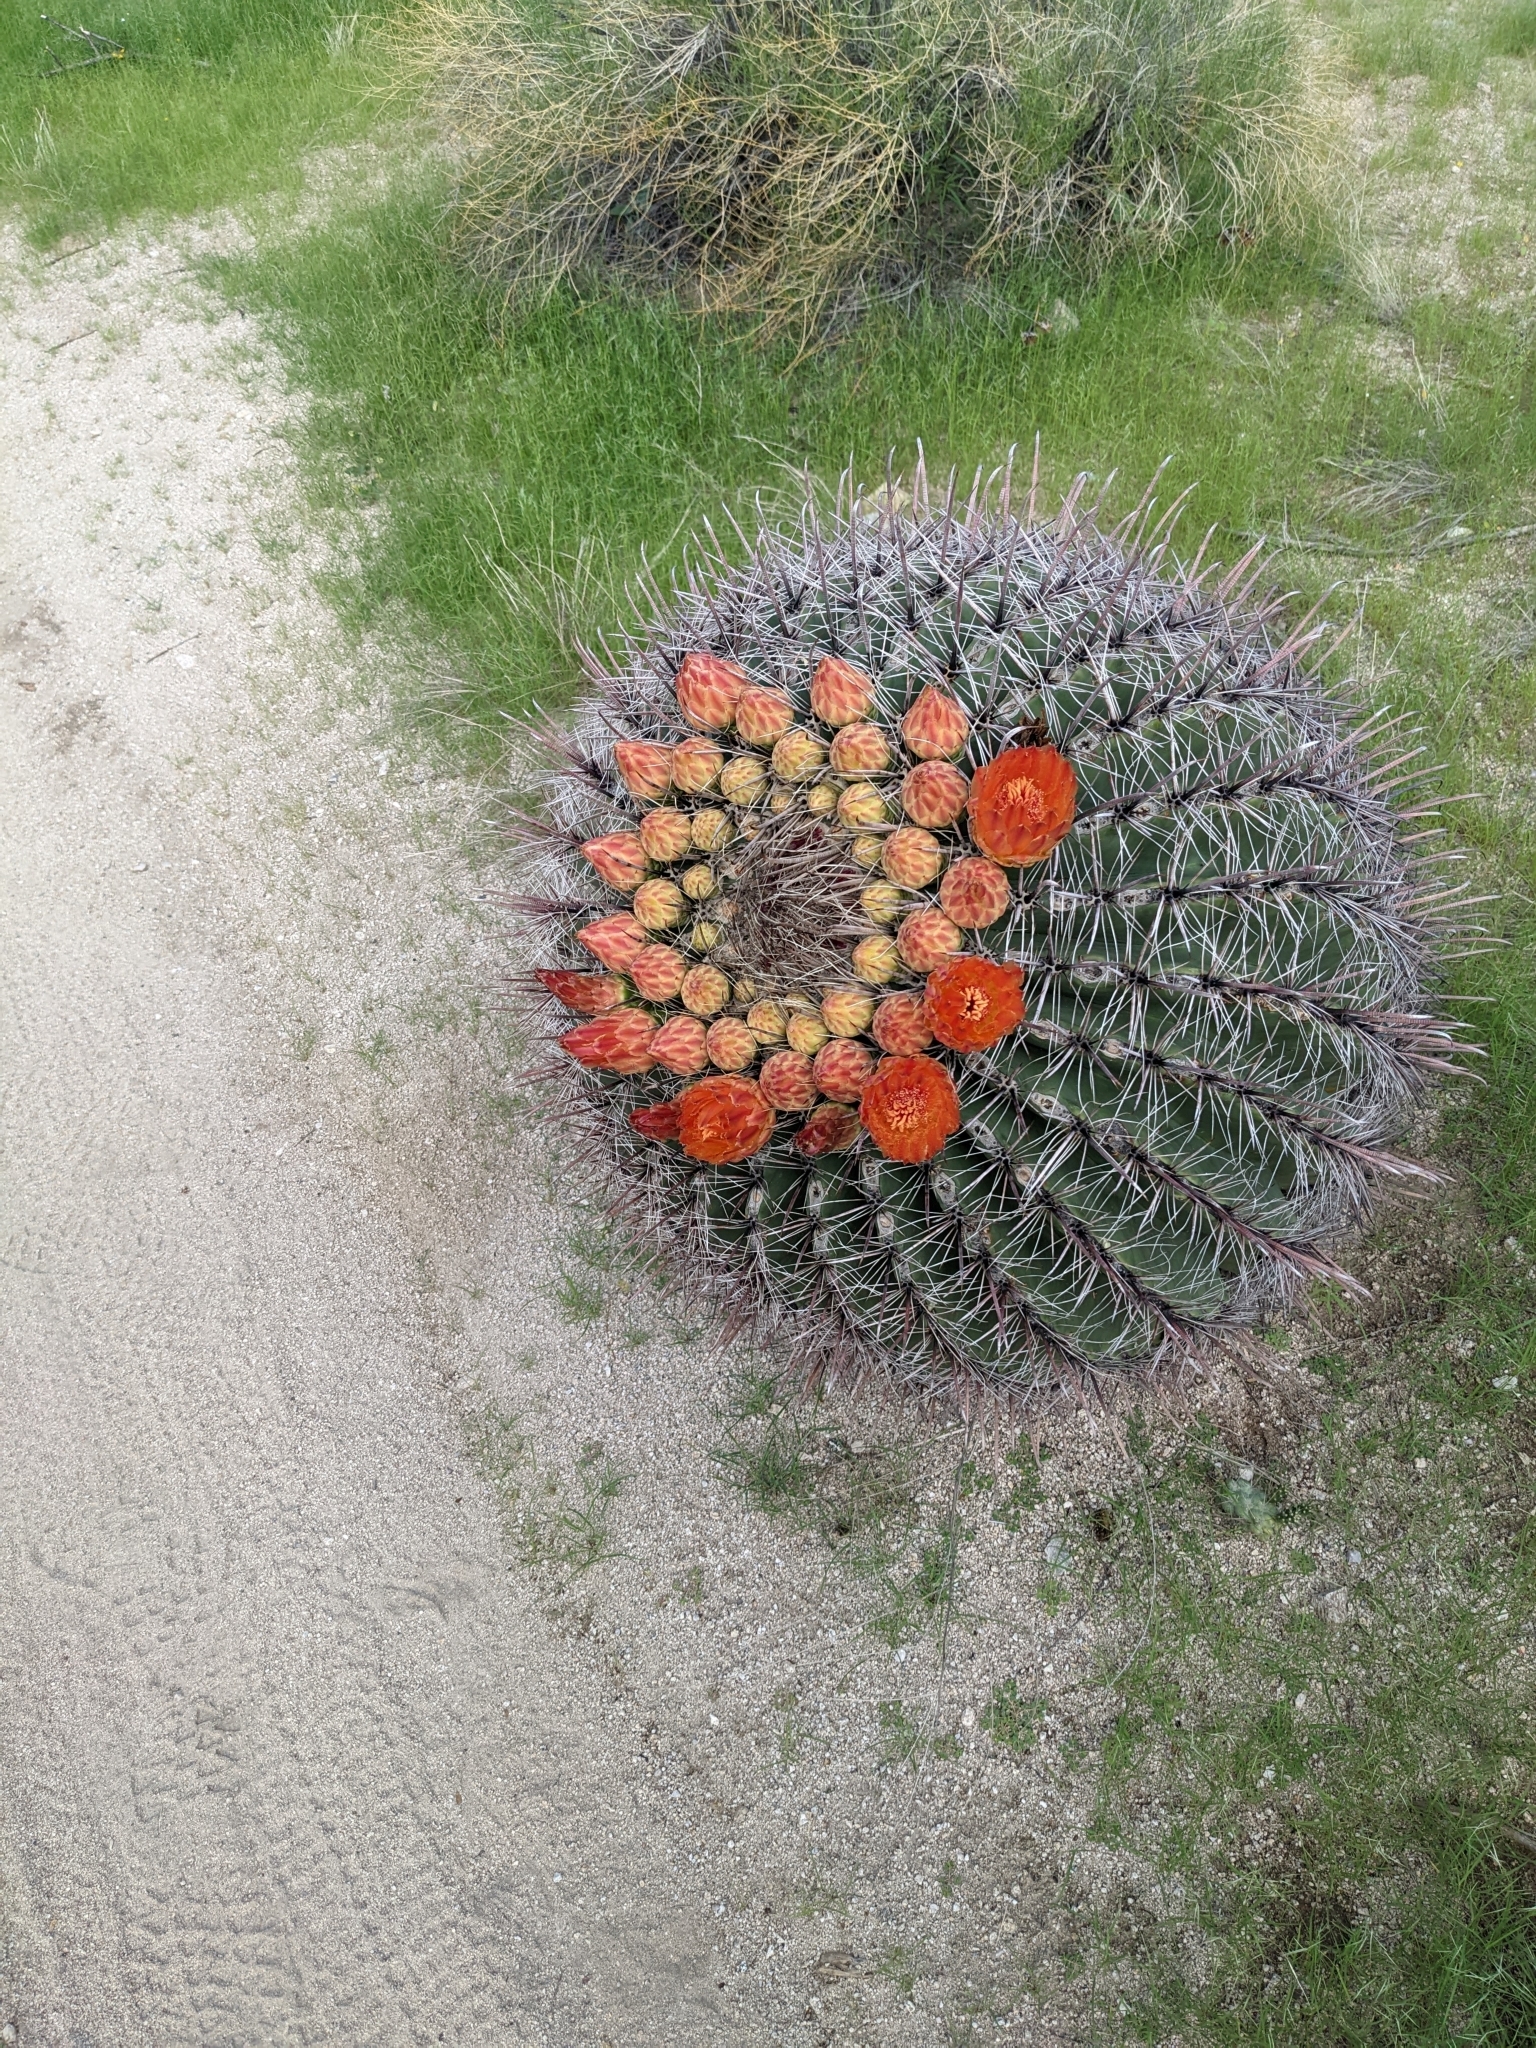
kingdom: Plantae
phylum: Tracheophyta
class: Magnoliopsida
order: Caryophyllales
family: Cactaceae
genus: Ferocactus
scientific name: Ferocactus wislizeni
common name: Candy barrel cactus
